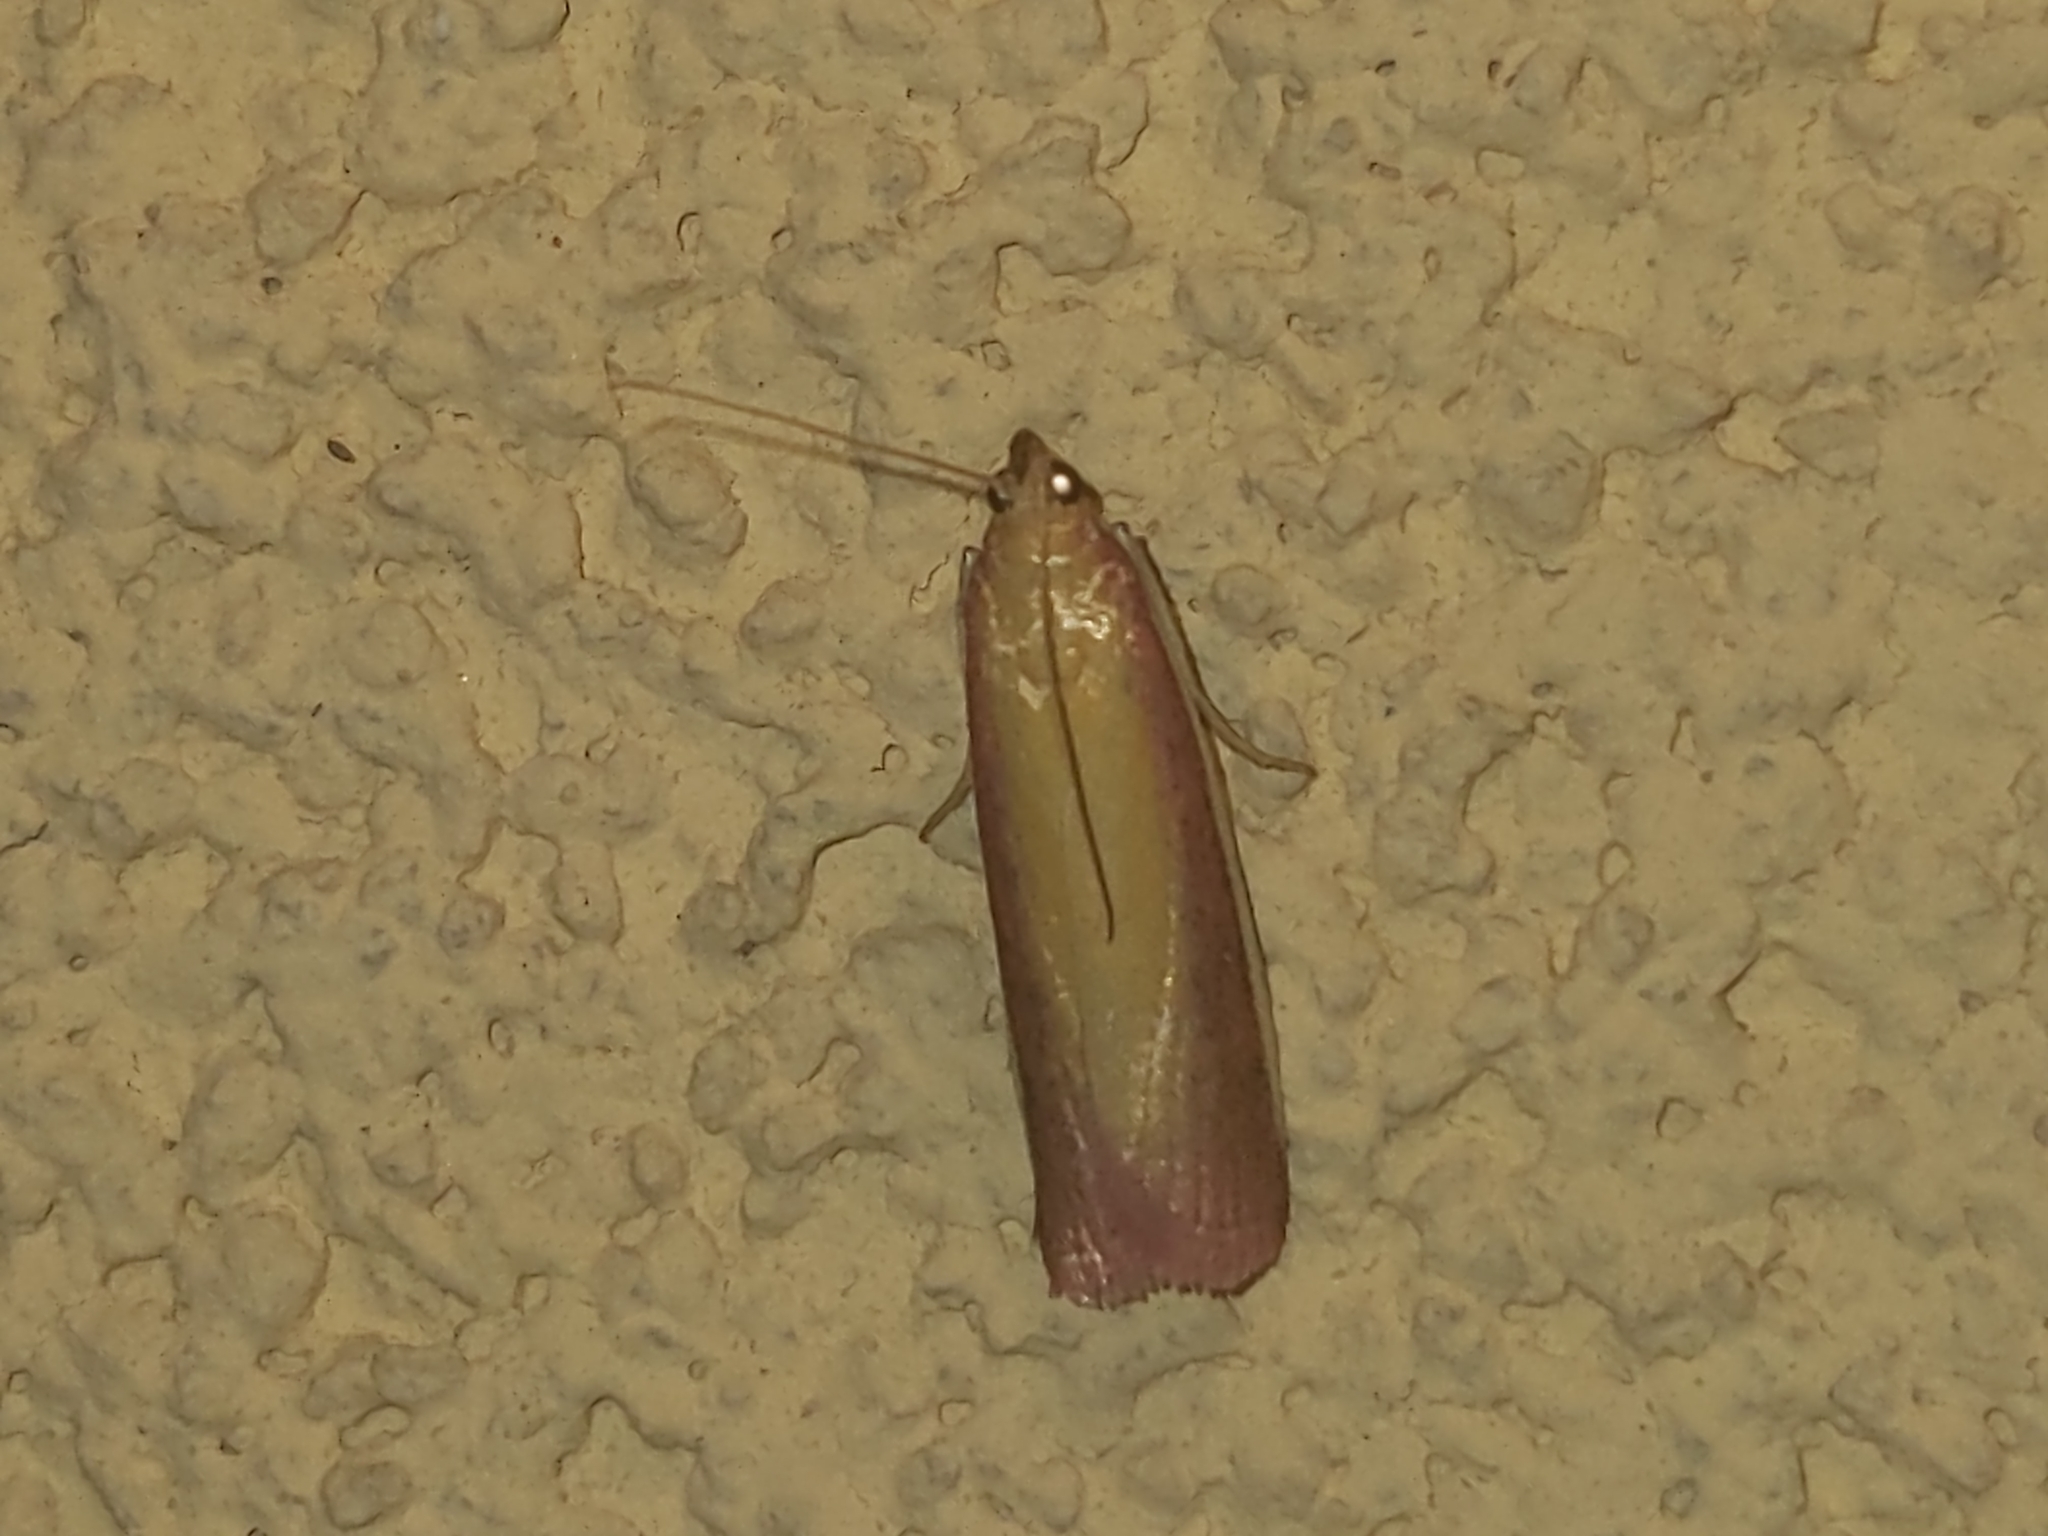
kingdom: Animalia
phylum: Arthropoda
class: Insecta
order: Lepidoptera
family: Pyralidae
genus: Oncocera
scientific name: Oncocera semirubella
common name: Rosy-striped knot-horn
